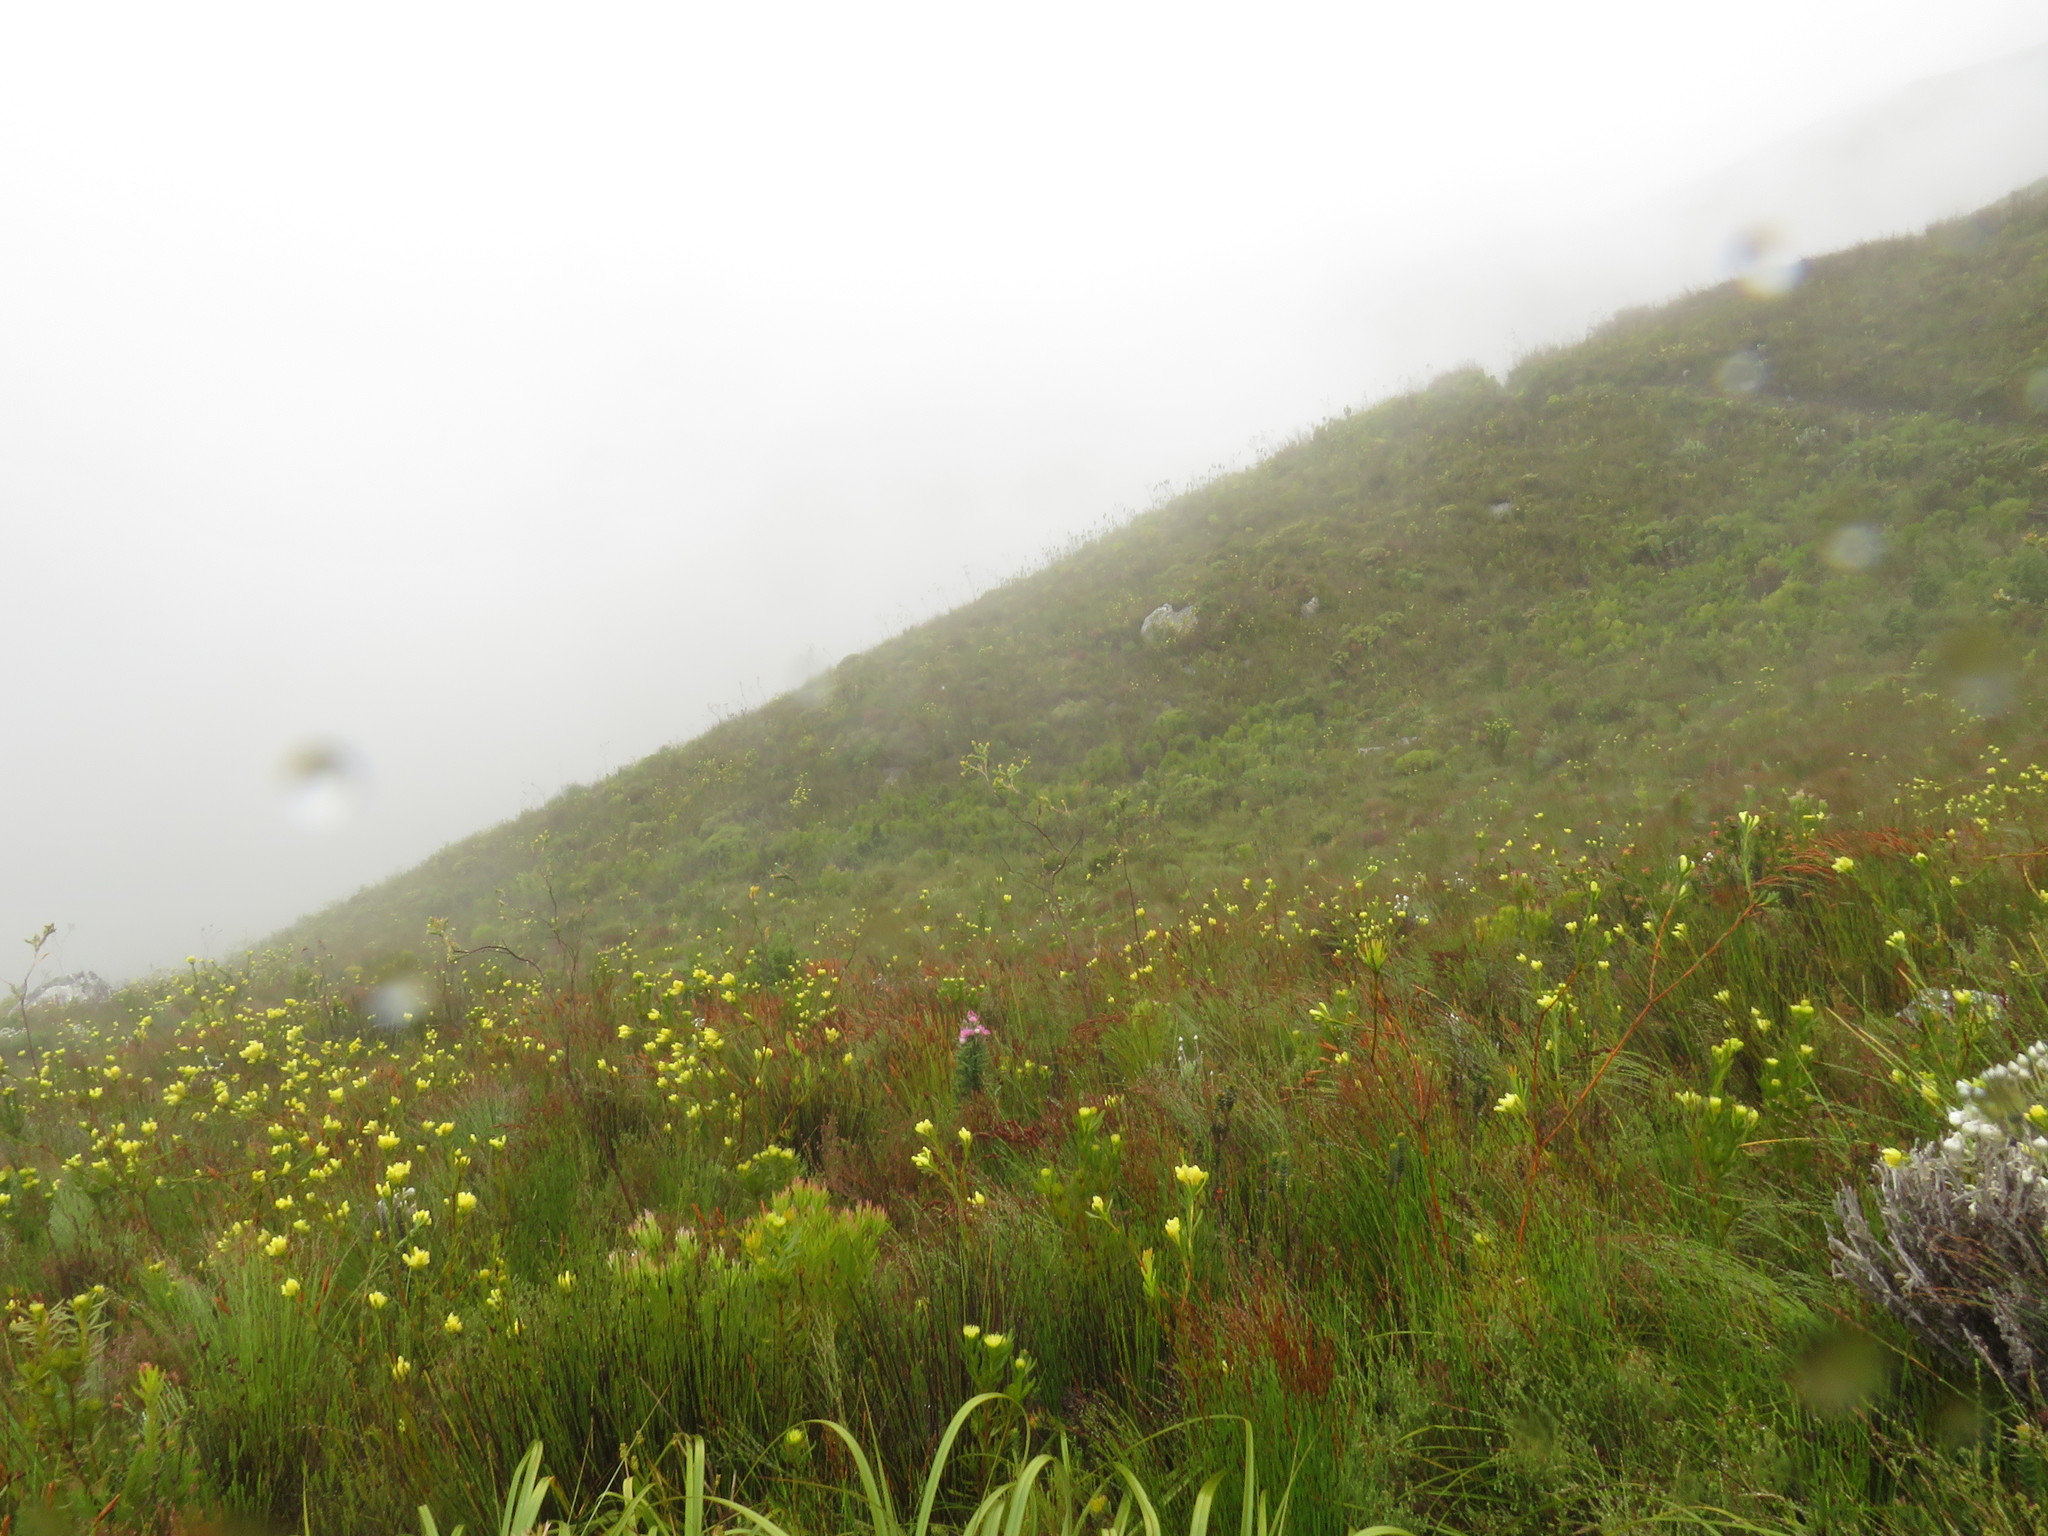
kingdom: Plantae
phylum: Tracheophyta
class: Magnoliopsida
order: Santalales
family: Thesiaceae
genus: Thesium
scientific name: Thesium euphorbioides
